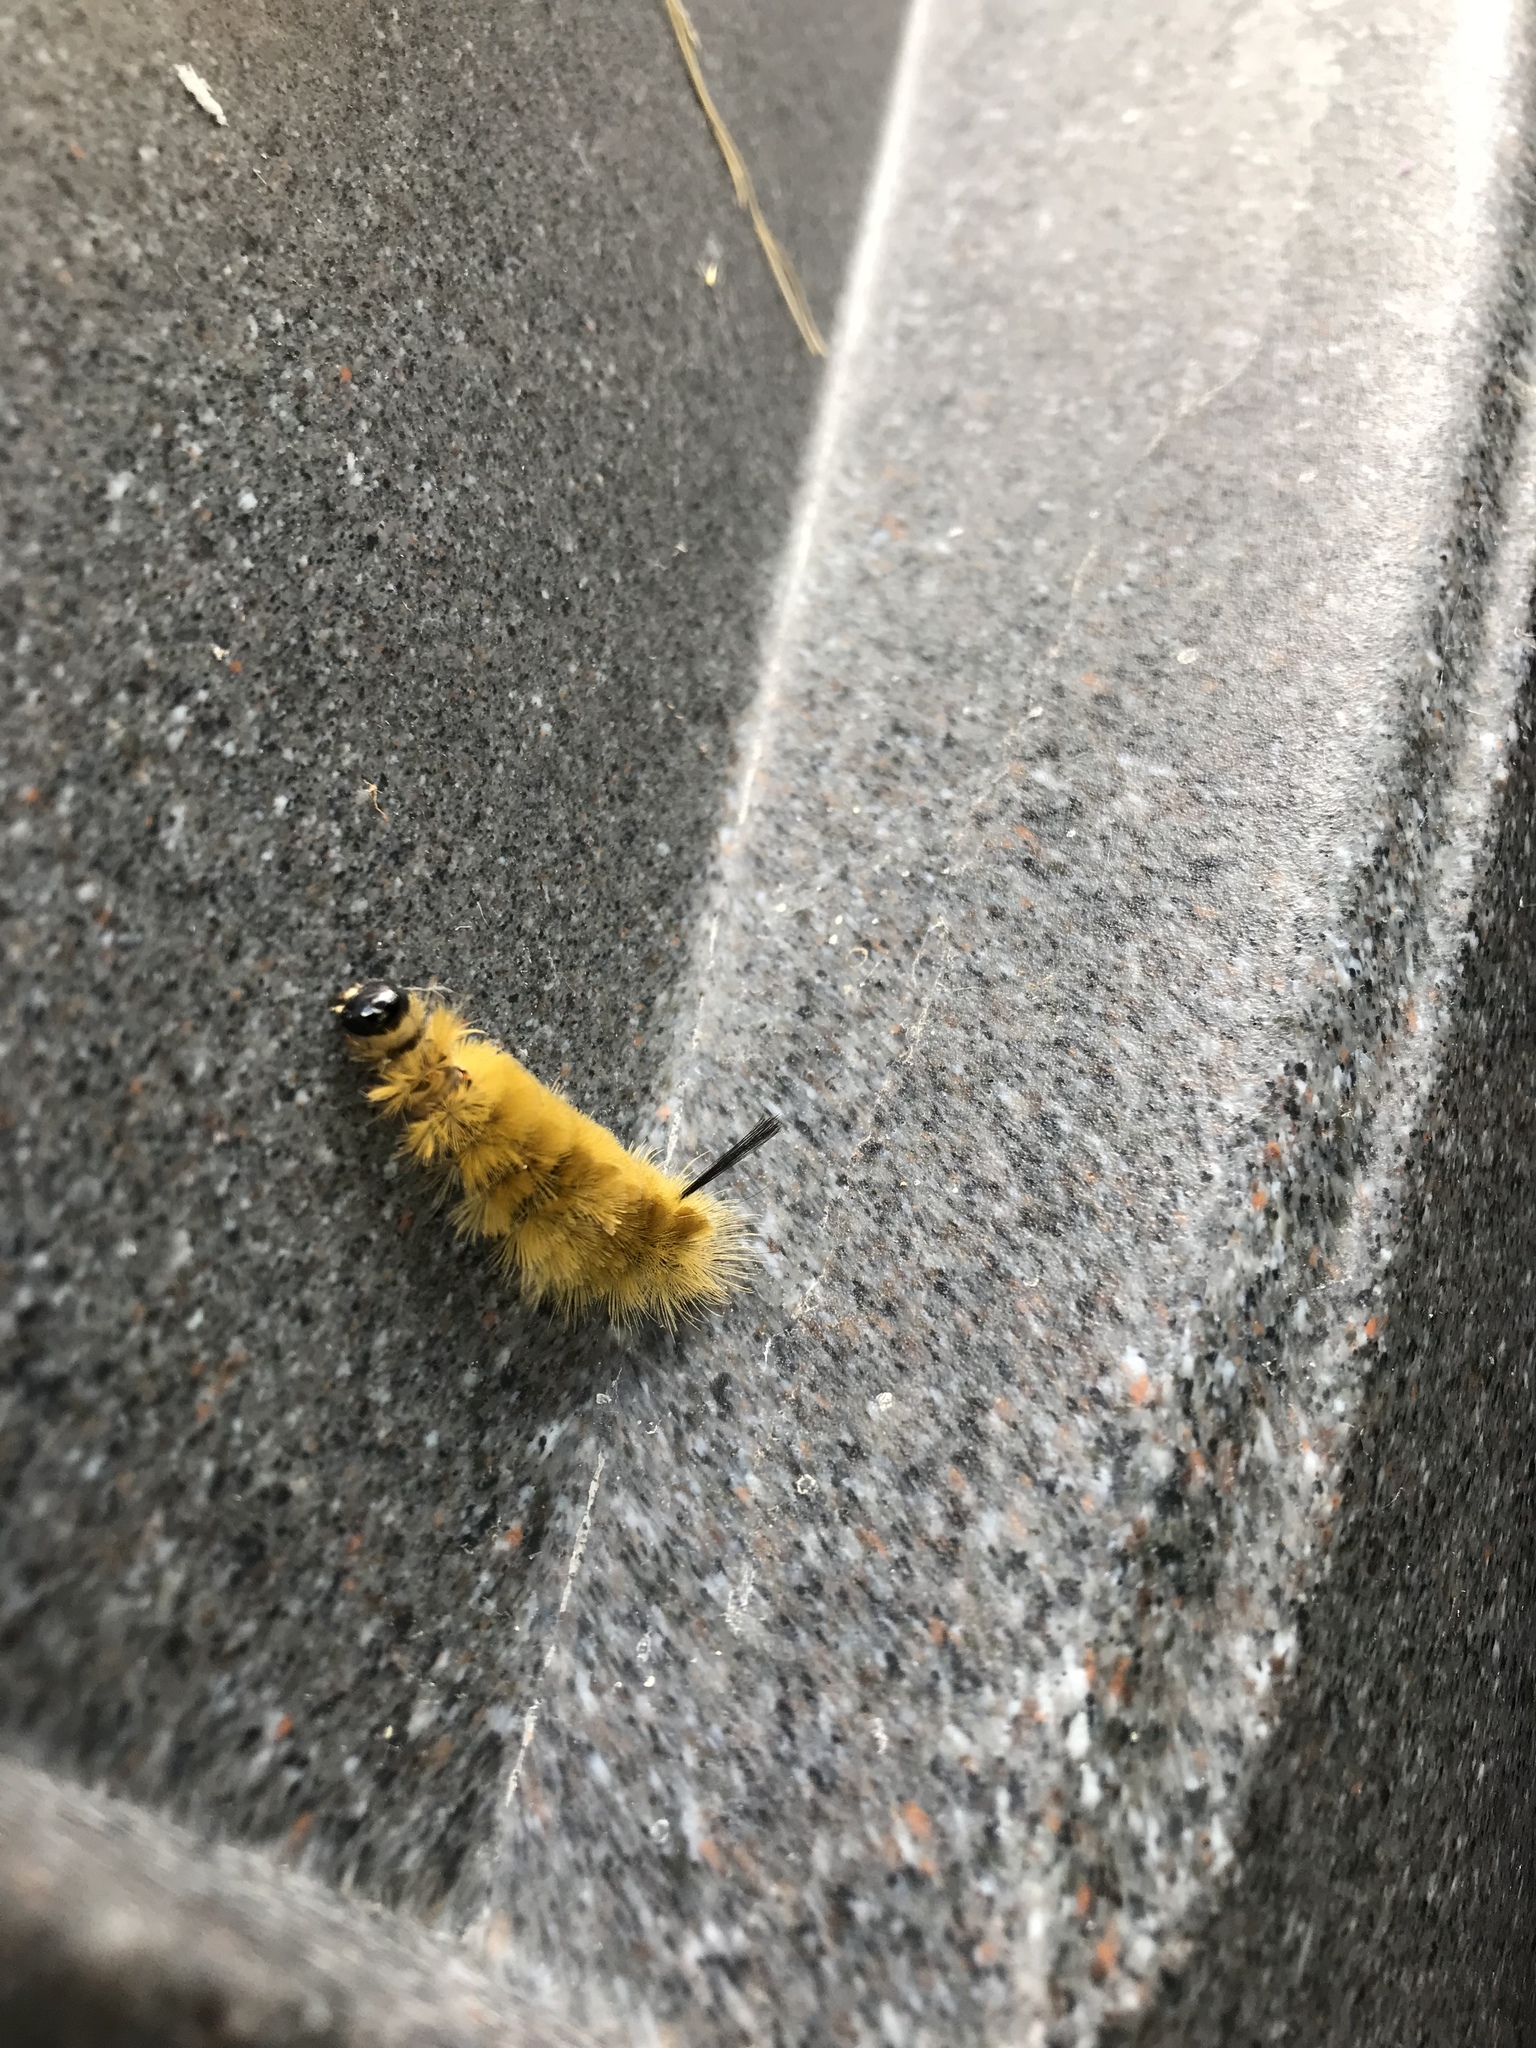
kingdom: Animalia
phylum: Arthropoda
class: Insecta
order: Lepidoptera
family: Erebidae
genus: Halysidota
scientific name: Halysidota tessellaris
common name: Banded tussock moth
